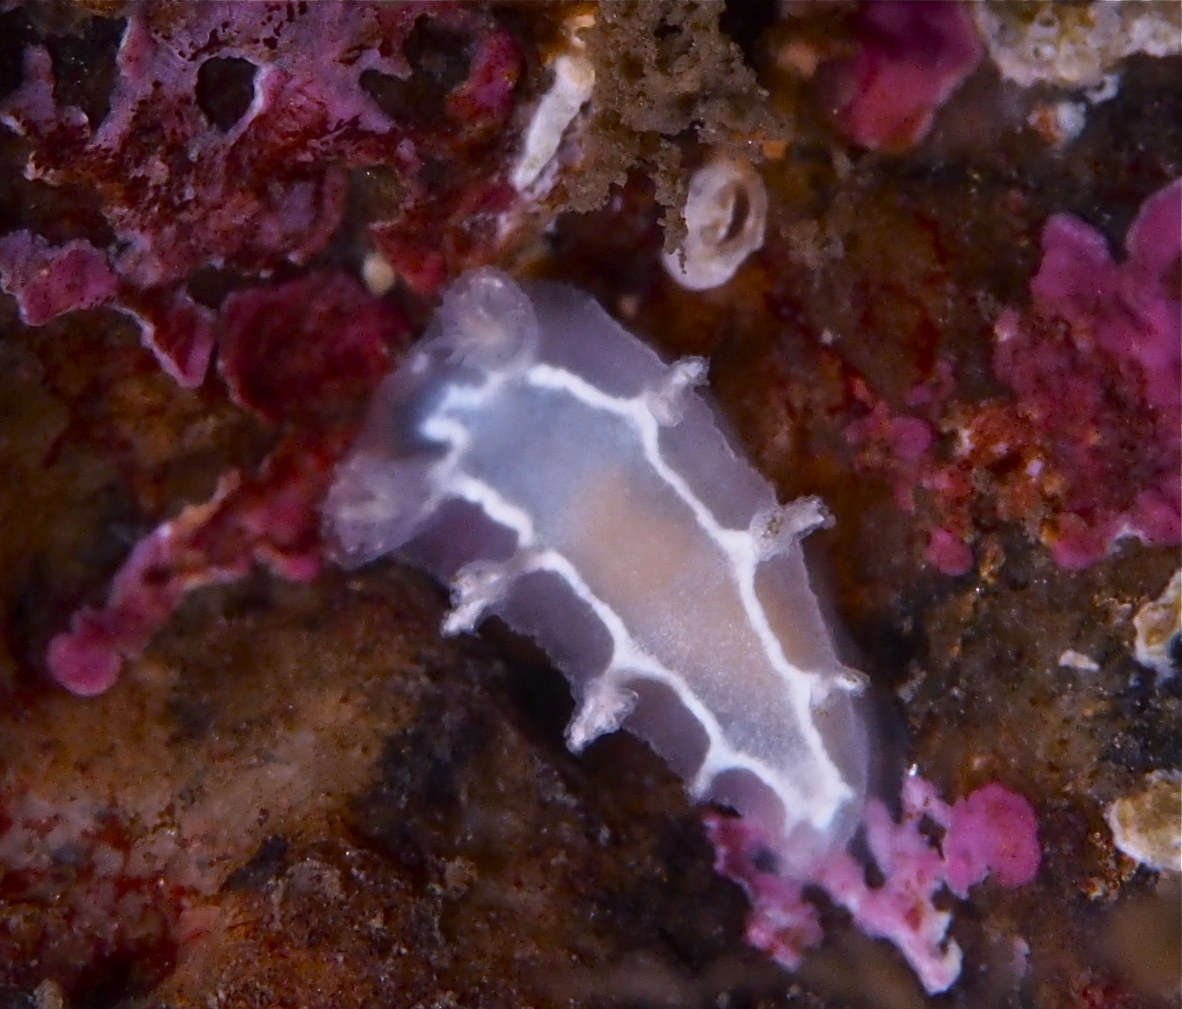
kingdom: Animalia
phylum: Mollusca
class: Gastropoda
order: Nudibranchia
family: Tritoniidae
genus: Duvaucelia
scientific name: Duvaucelia lineata
